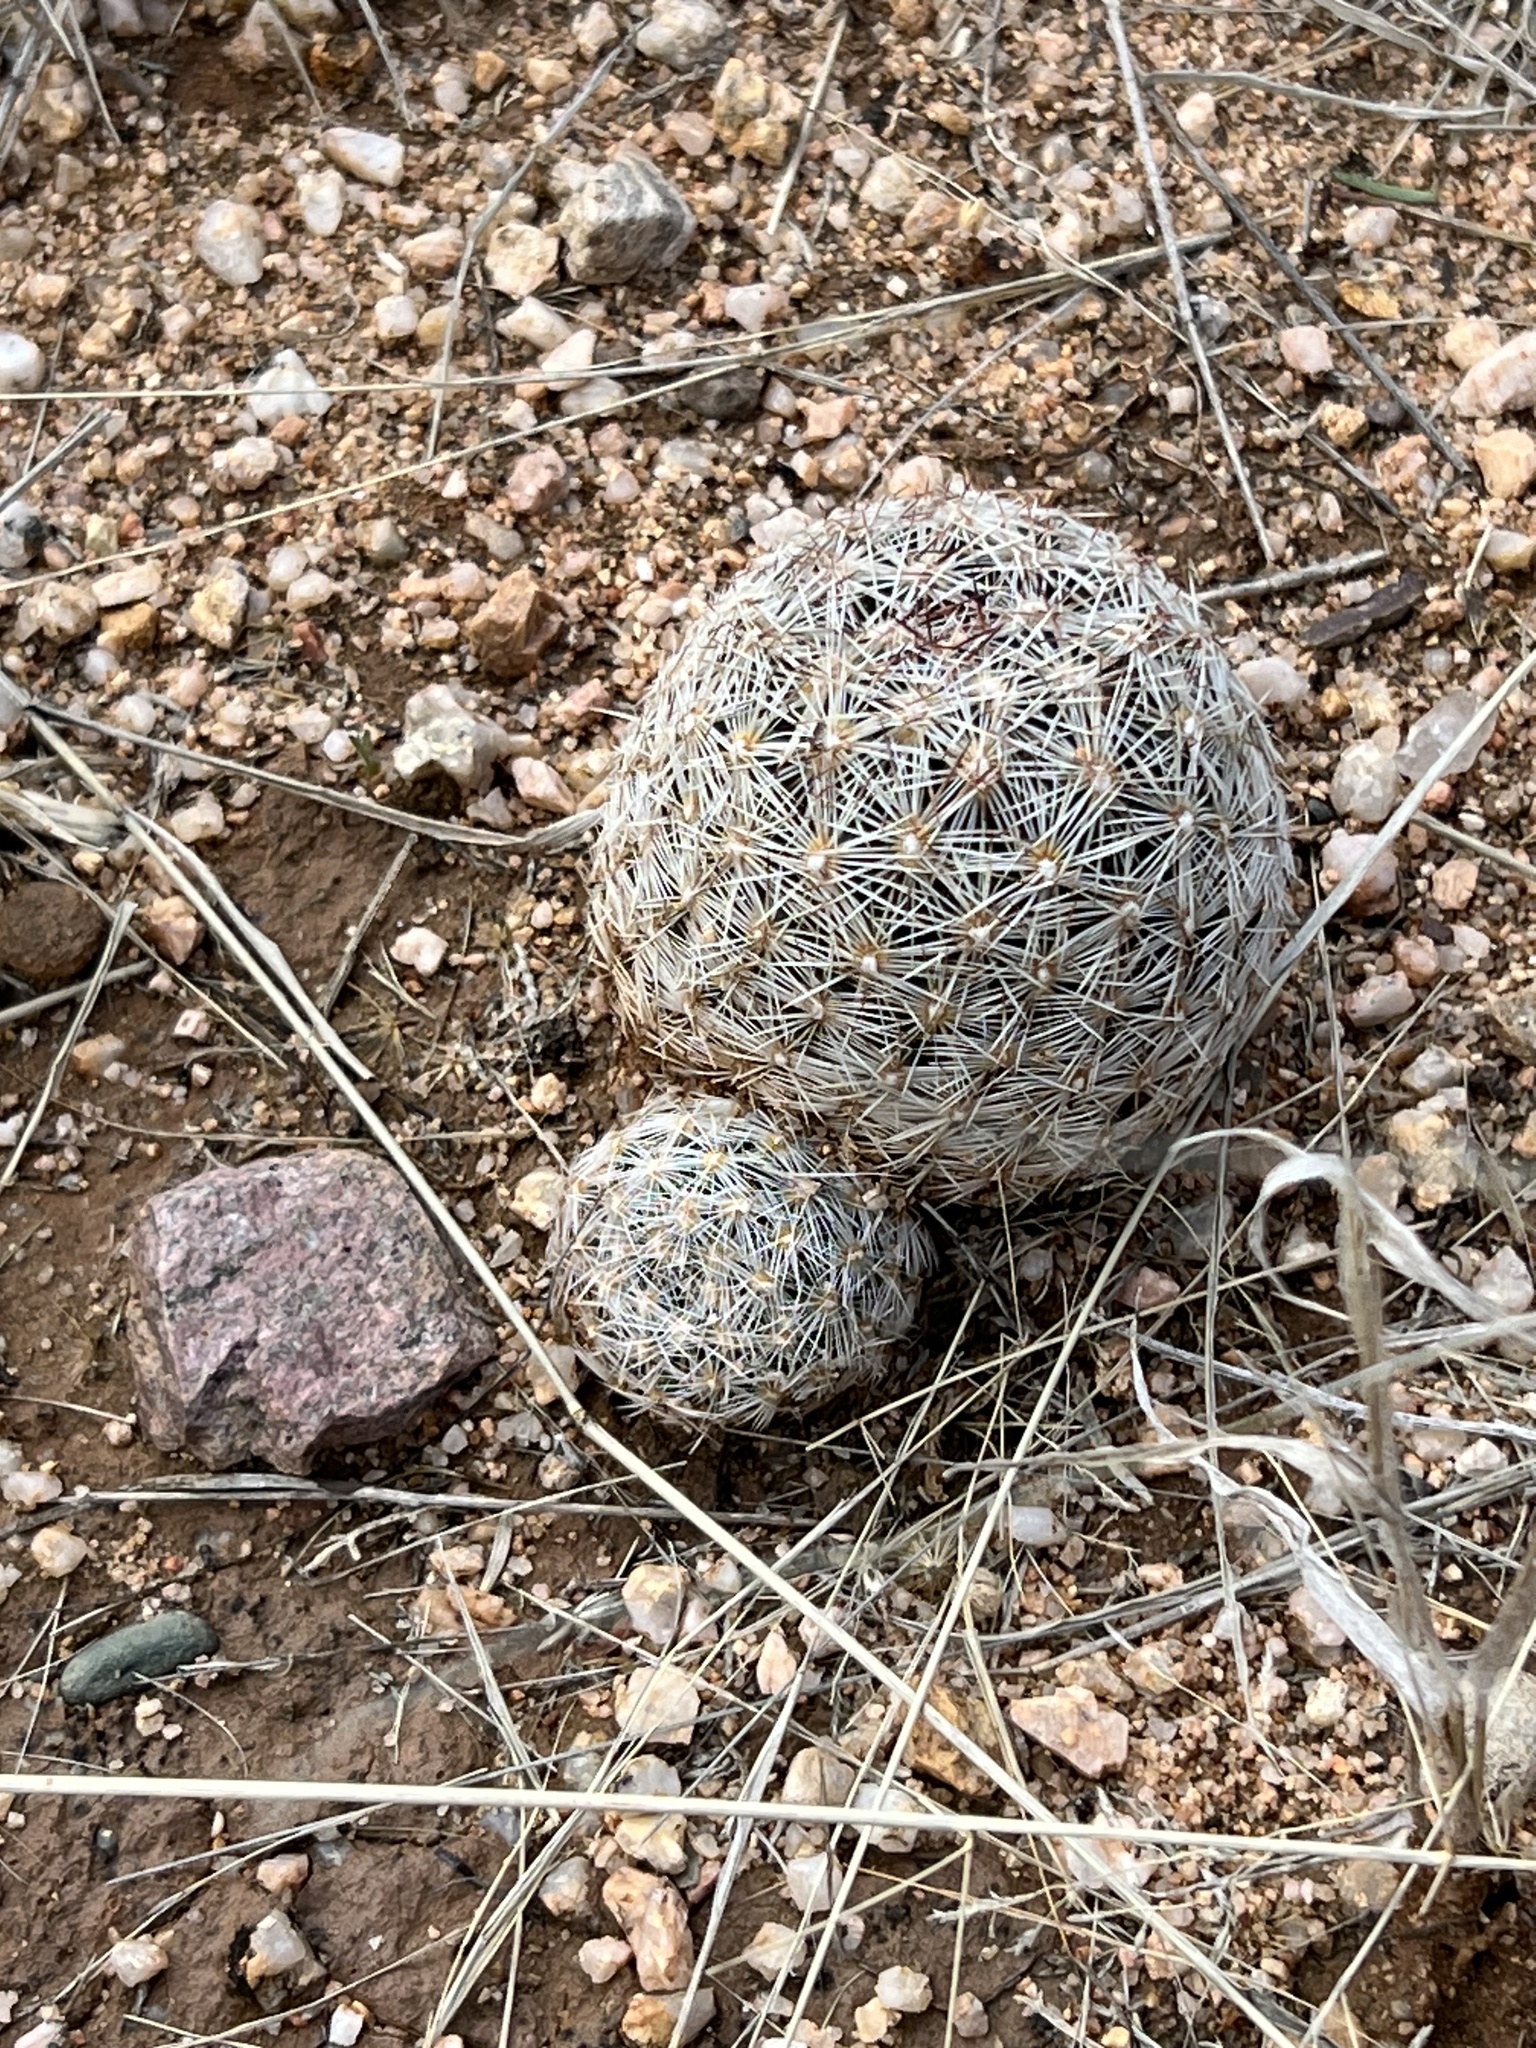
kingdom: Plantae
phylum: Tracheophyta
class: Magnoliopsida
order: Caryophyllales
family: Cactaceae
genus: Pelecyphora
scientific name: Pelecyphora vivipara
